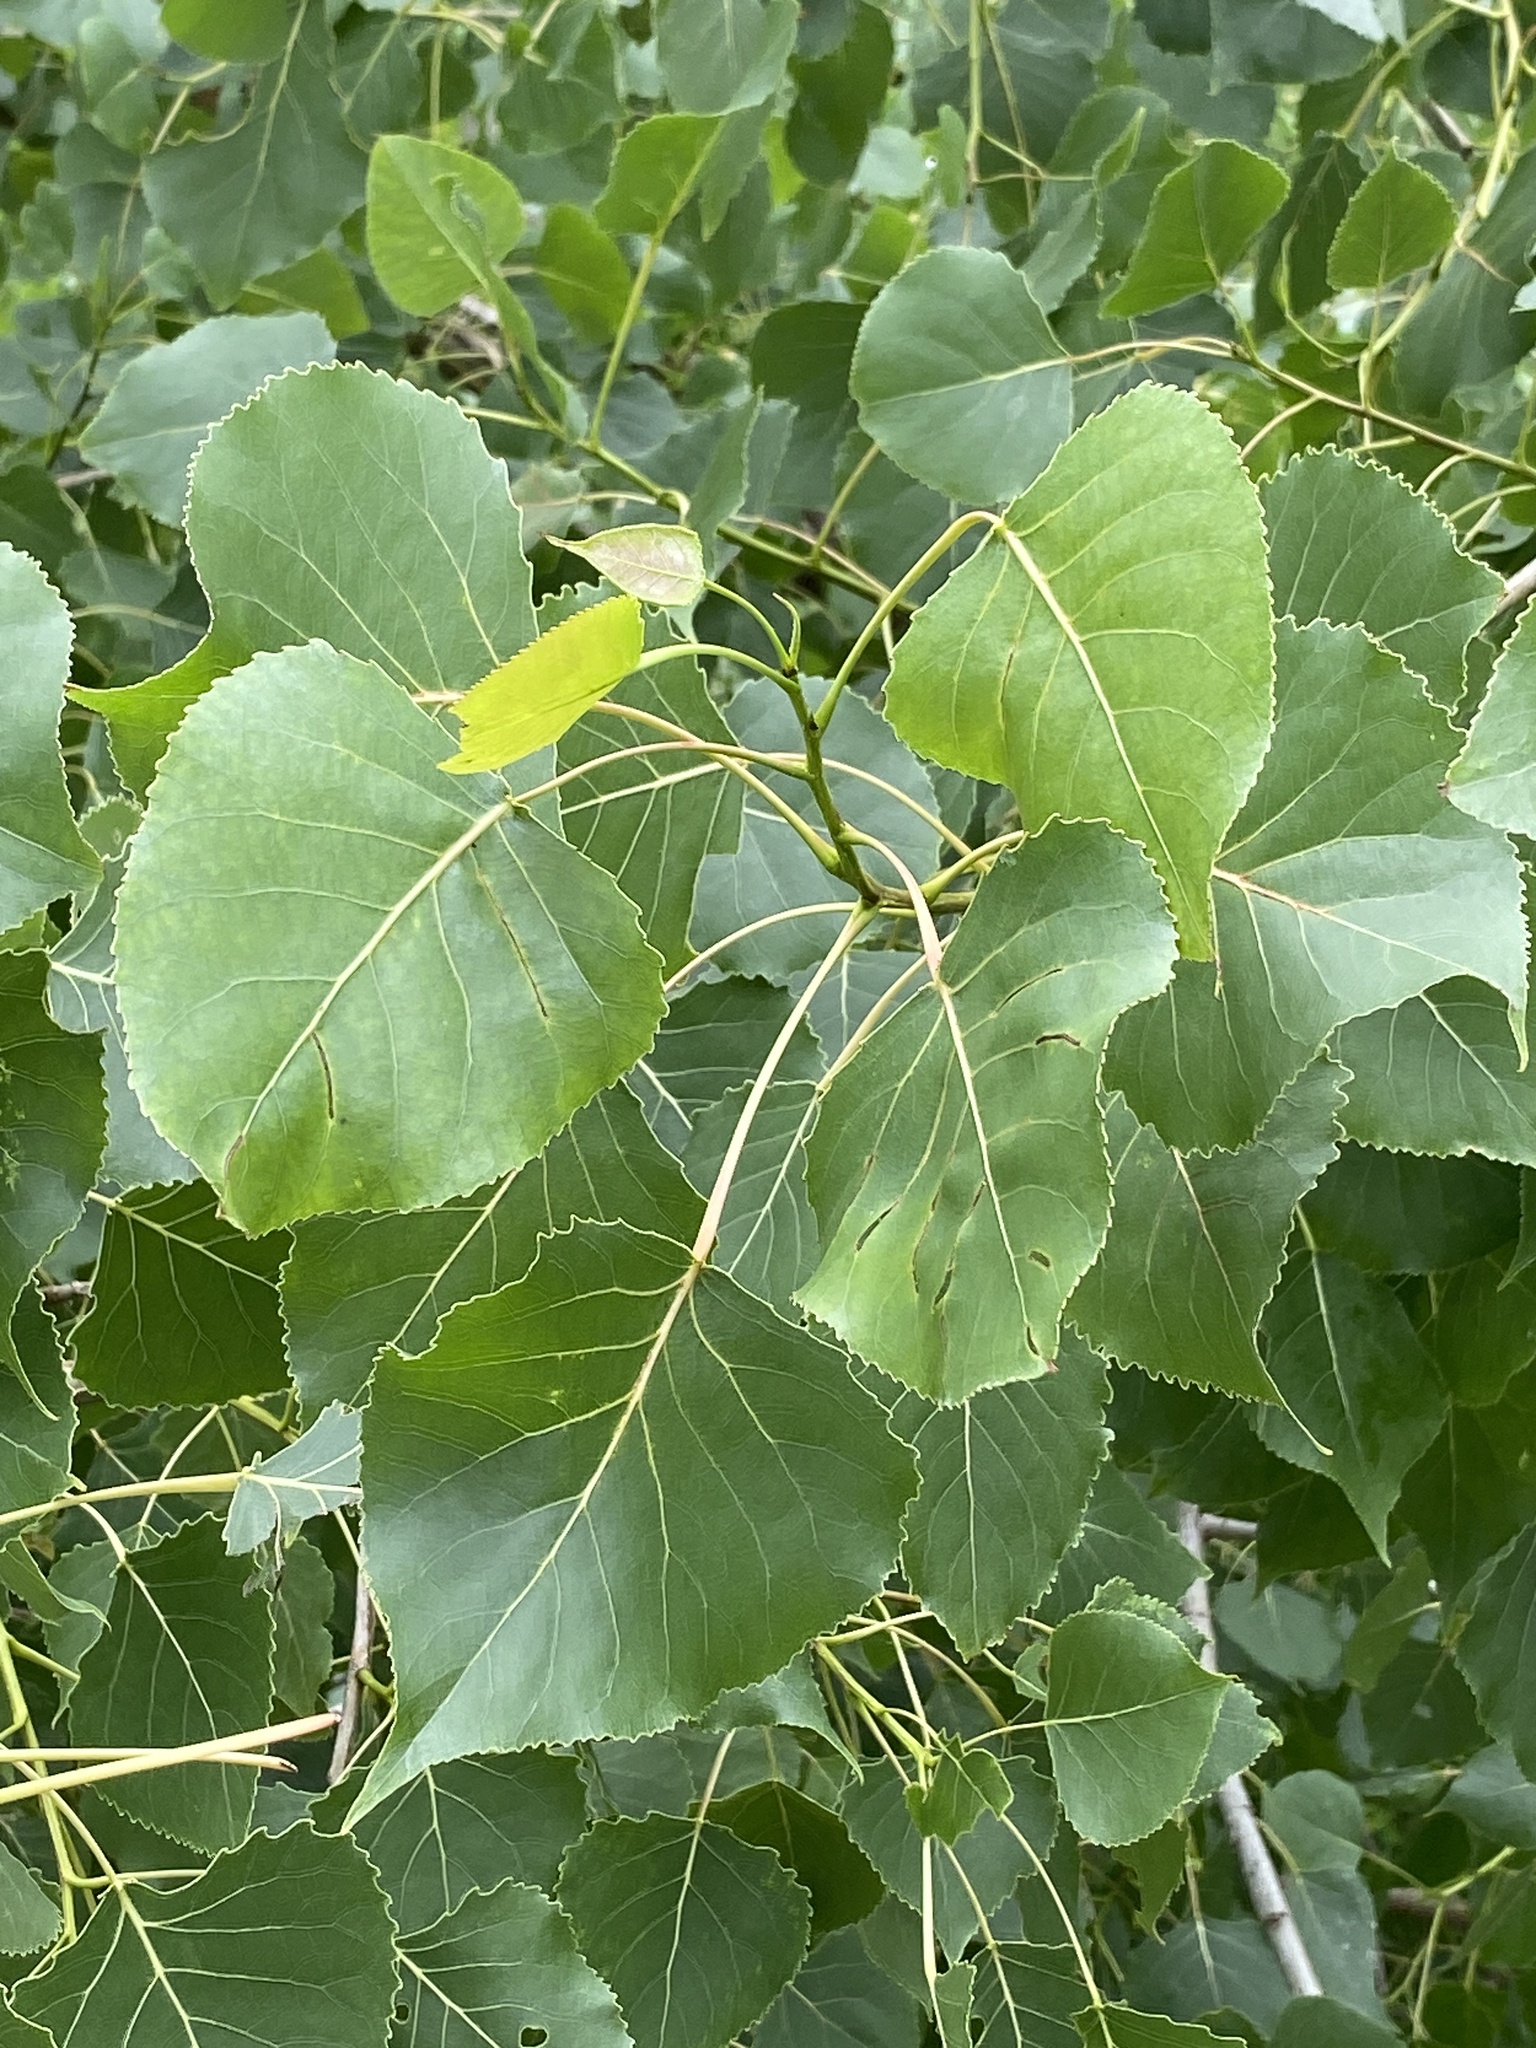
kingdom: Plantae
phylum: Tracheophyta
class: Magnoliopsida
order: Malpighiales
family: Salicaceae
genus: Populus
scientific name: Populus deltoides
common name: Eastern cottonwood
